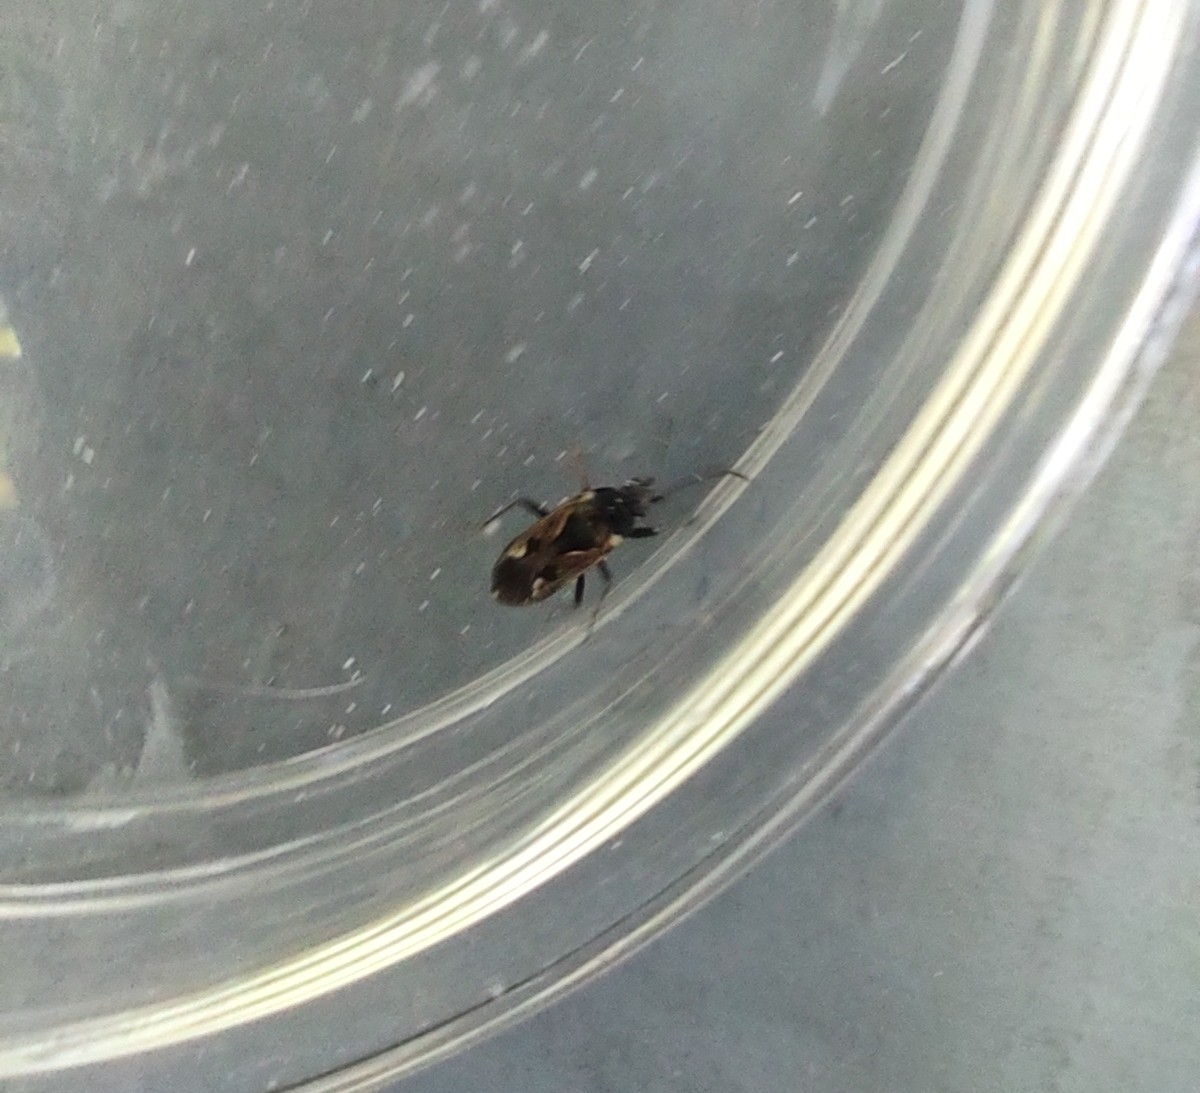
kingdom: Animalia
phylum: Arthropoda
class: Insecta
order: Hemiptera
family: Rhyparochromidae
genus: Rhyparochromus
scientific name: Rhyparochromus vulgaris
